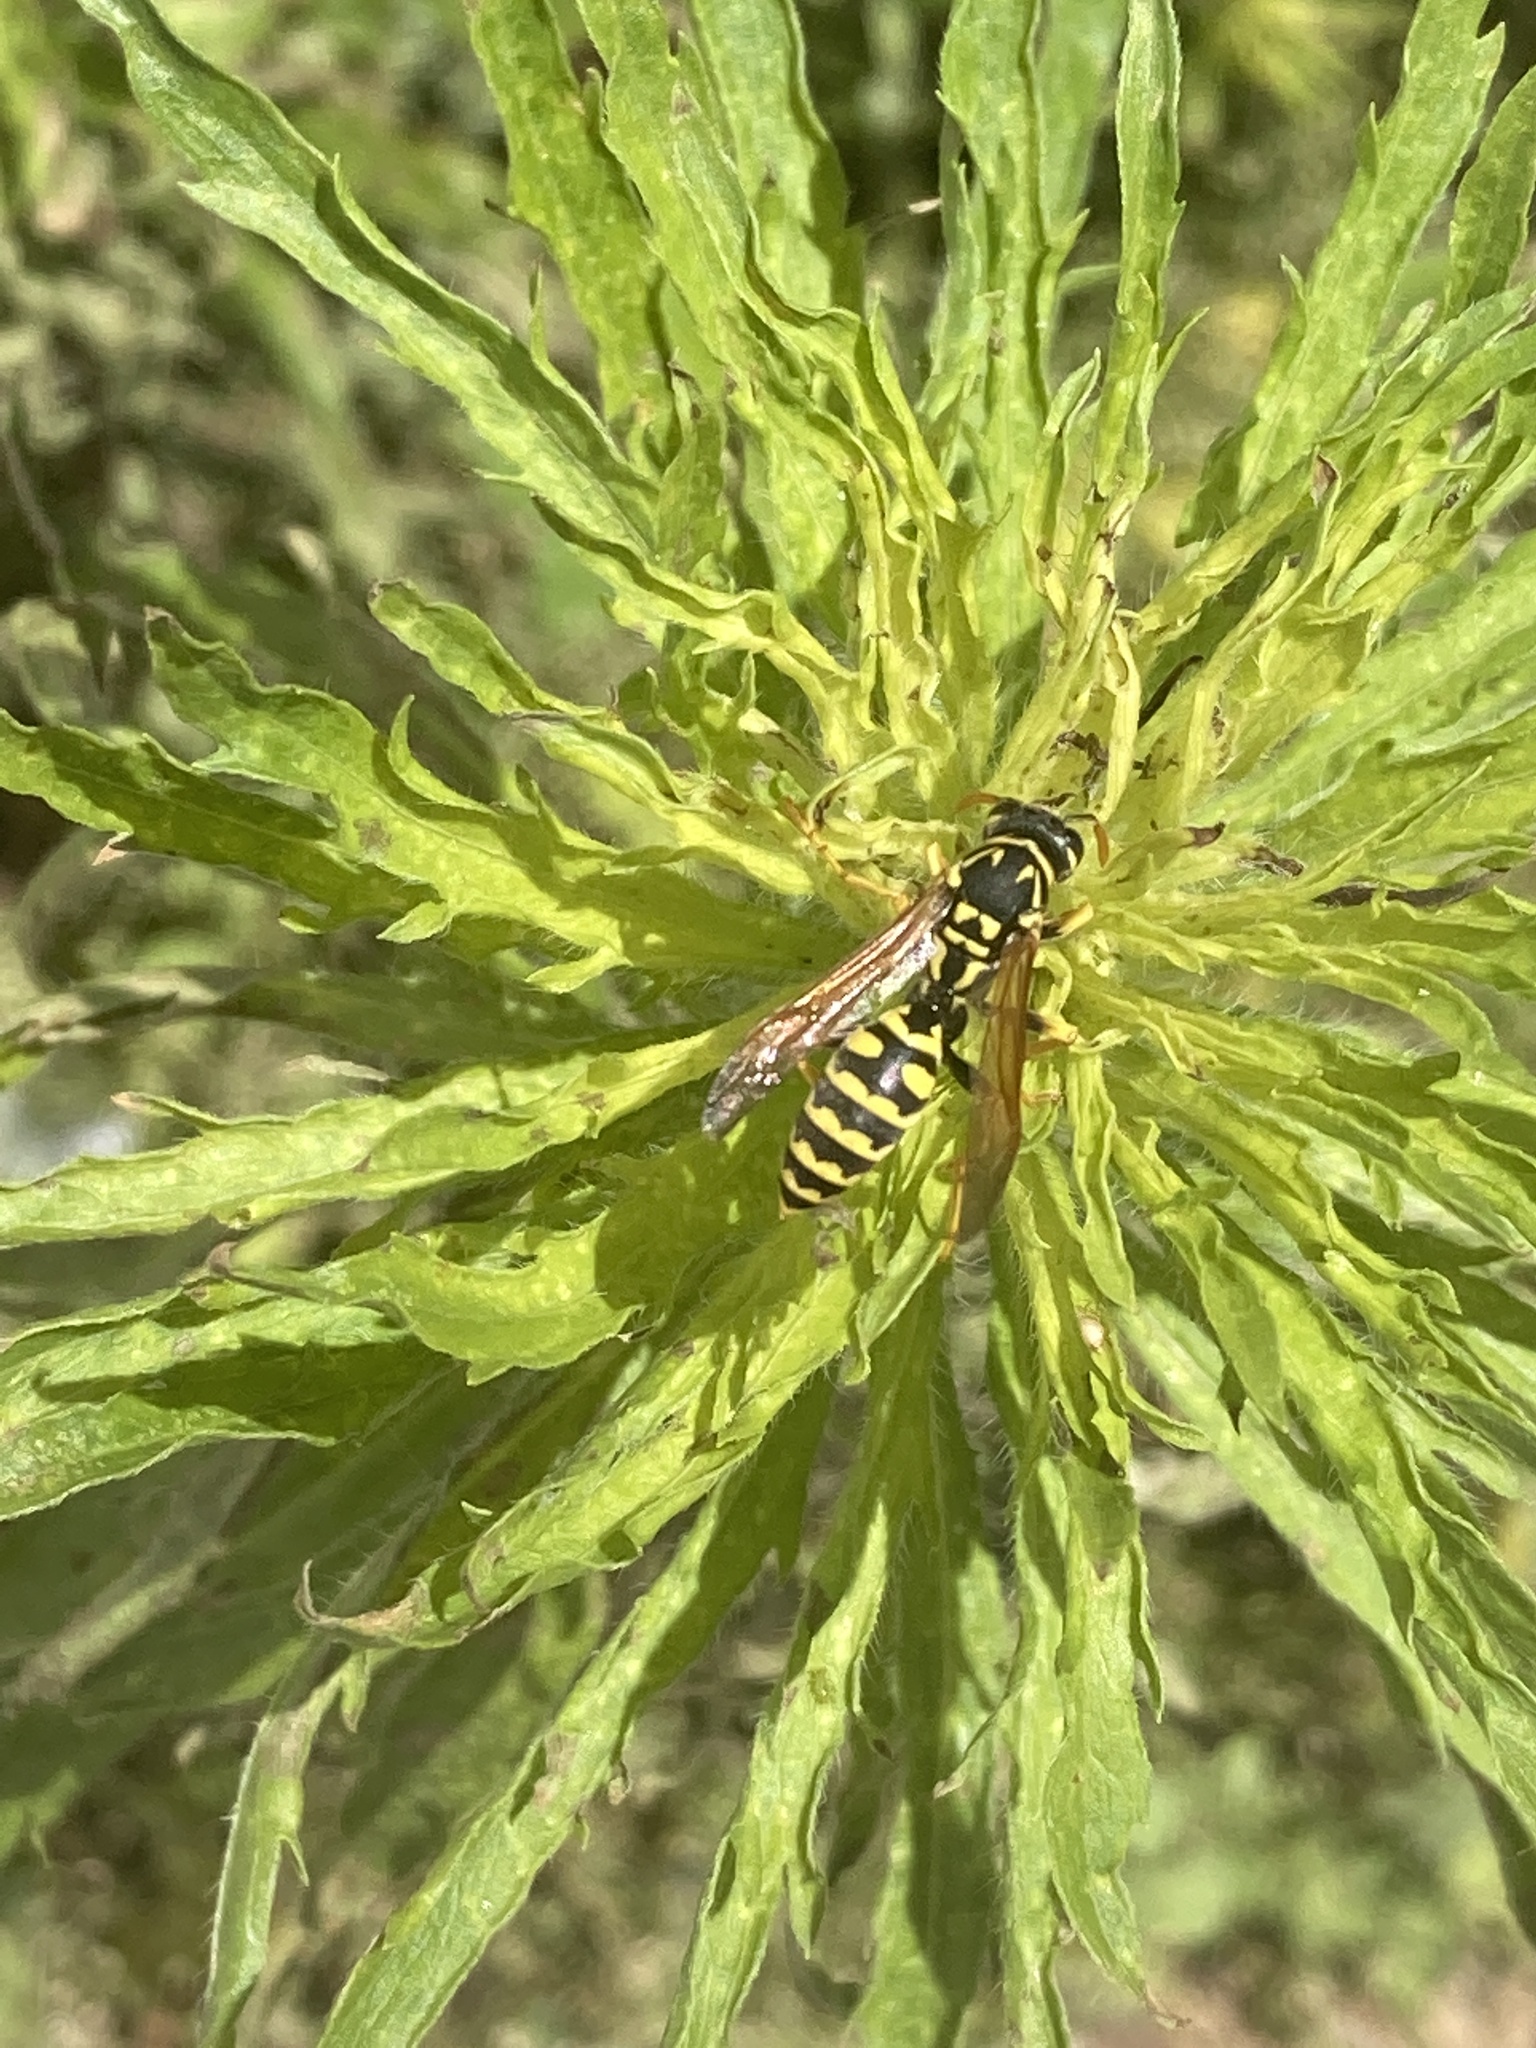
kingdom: Animalia
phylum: Arthropoda
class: Insecta
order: Hymenoptera
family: Eumenidae
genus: Polistes
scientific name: Polistes dominula
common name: Paper wasp
